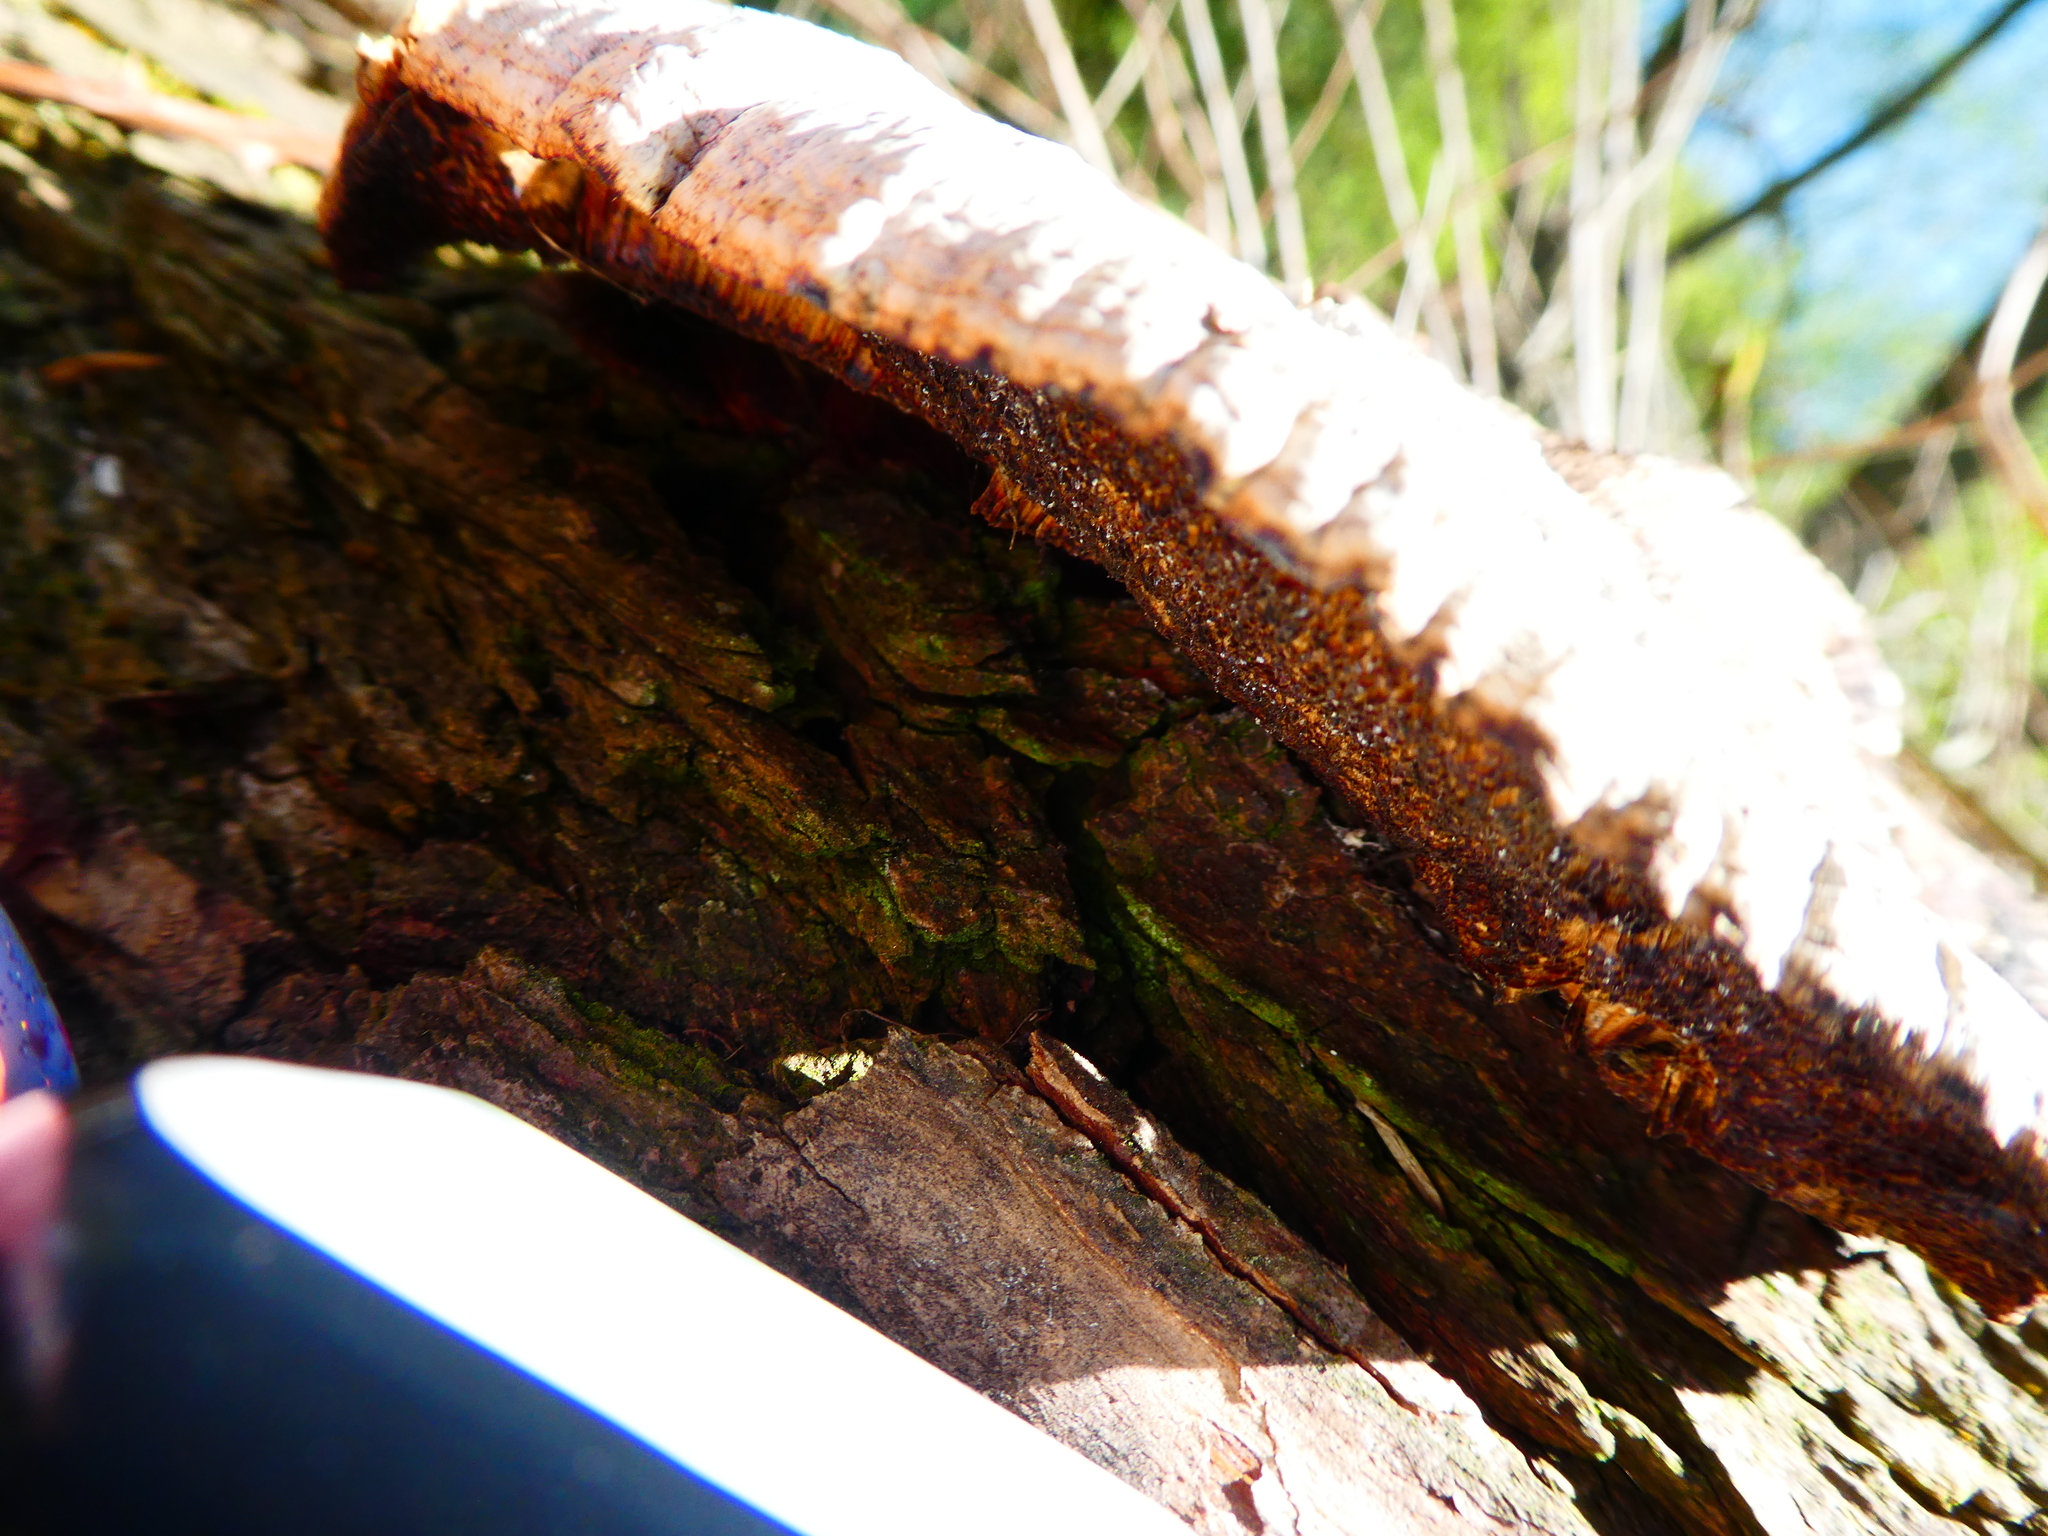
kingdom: Fungi
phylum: Basidiomycota
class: Agaricomycetes
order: Polyporales
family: Polyporaceae
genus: Daedaleopsis
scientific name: Daedaleopsis confragosa
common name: Blushing bracket
